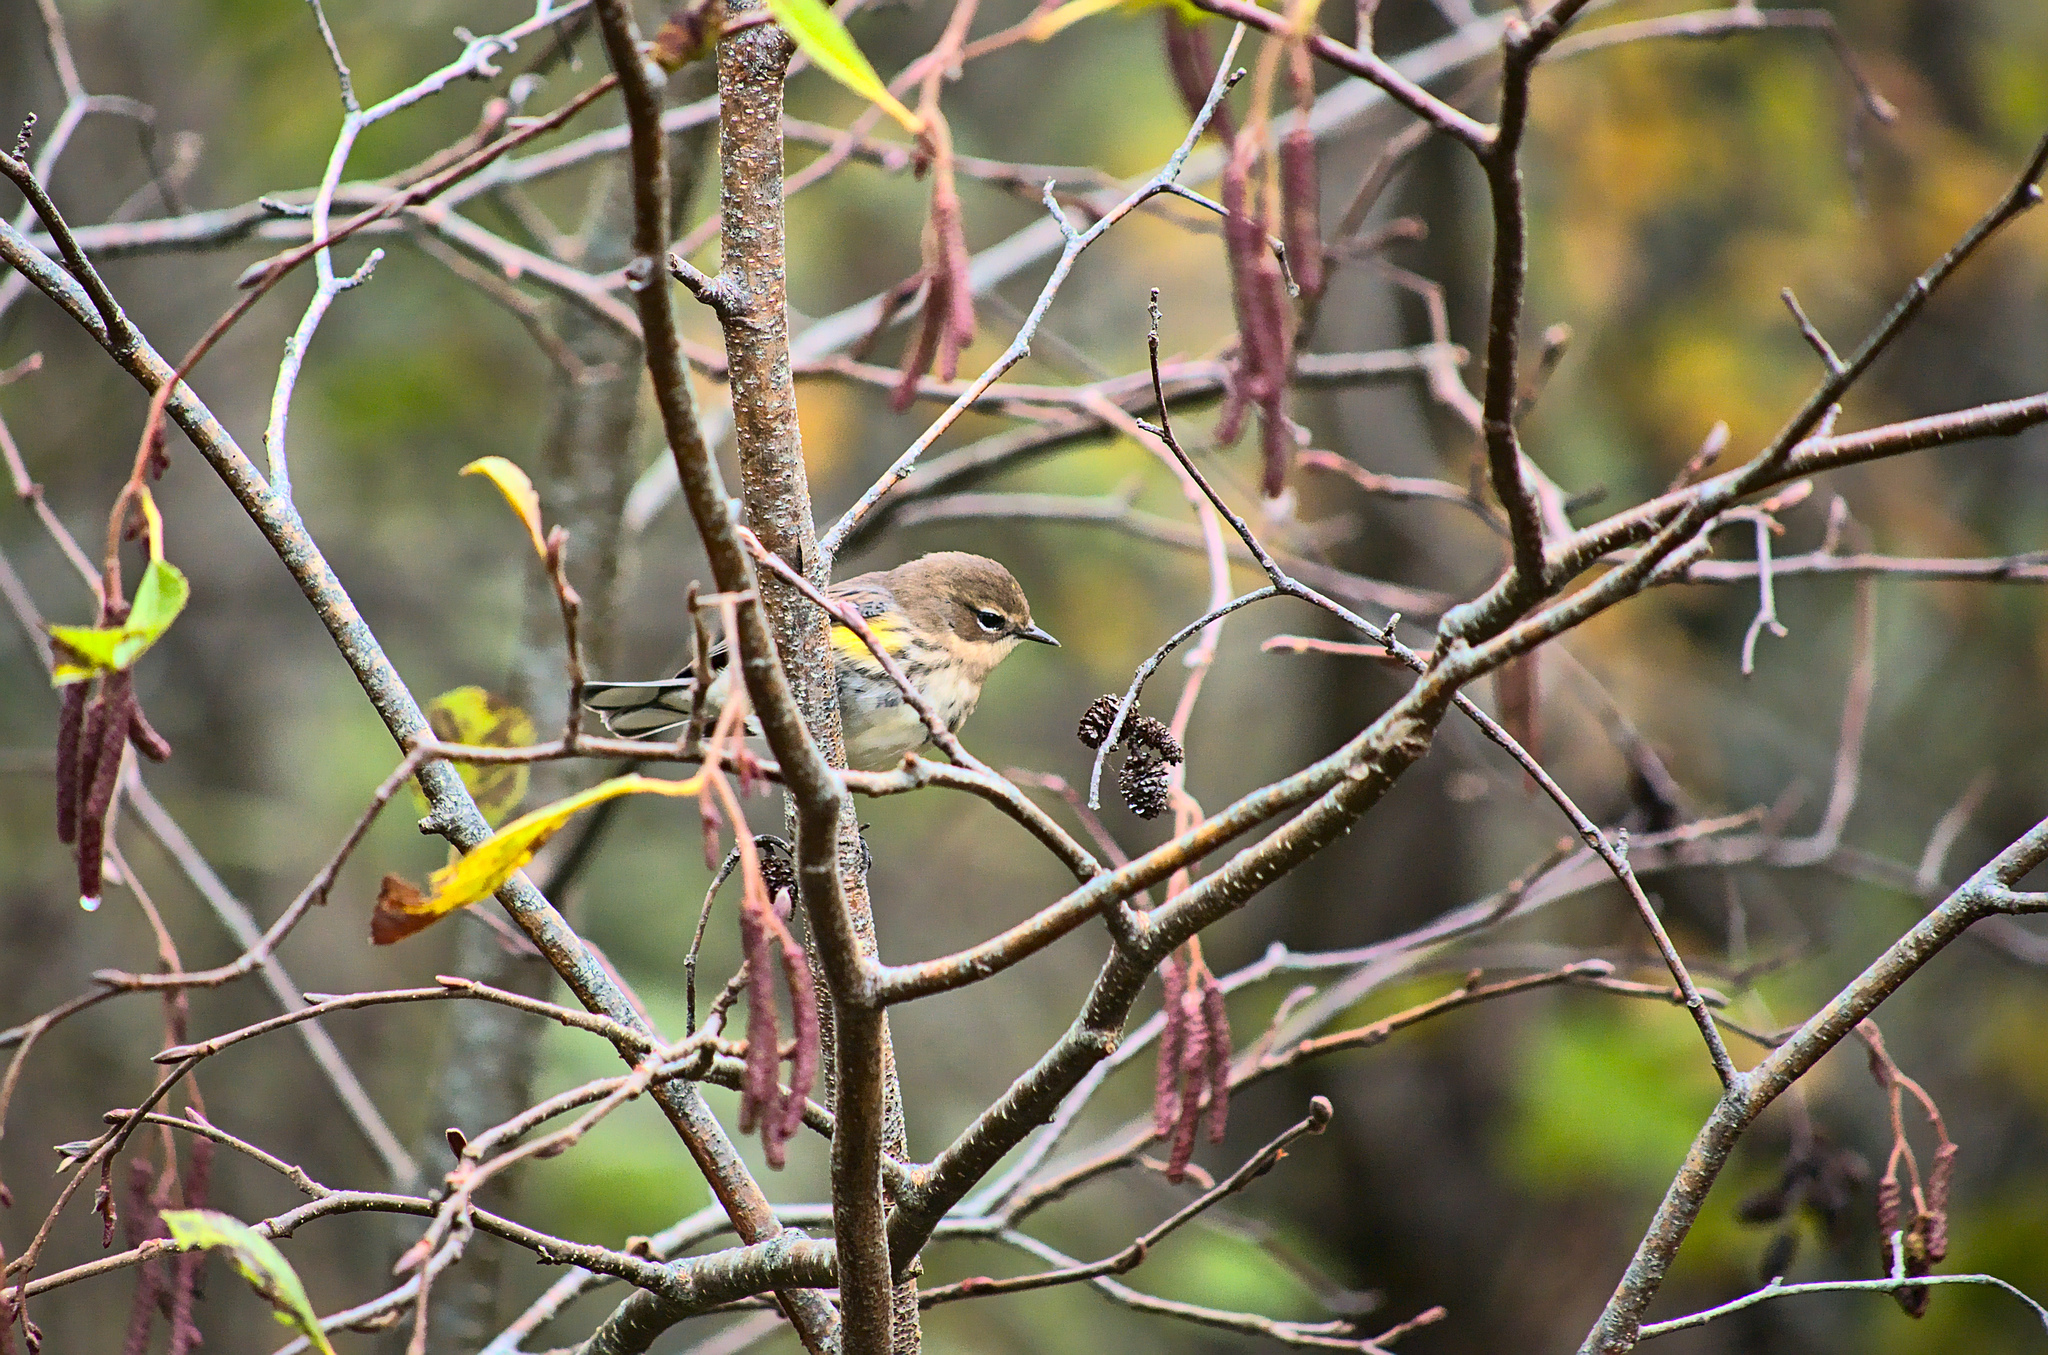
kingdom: Animalia
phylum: Chordata
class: Aves
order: Passeriformes
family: Parulidae
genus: Setophaga
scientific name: Setophaga coronata
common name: Myrtle warbler
